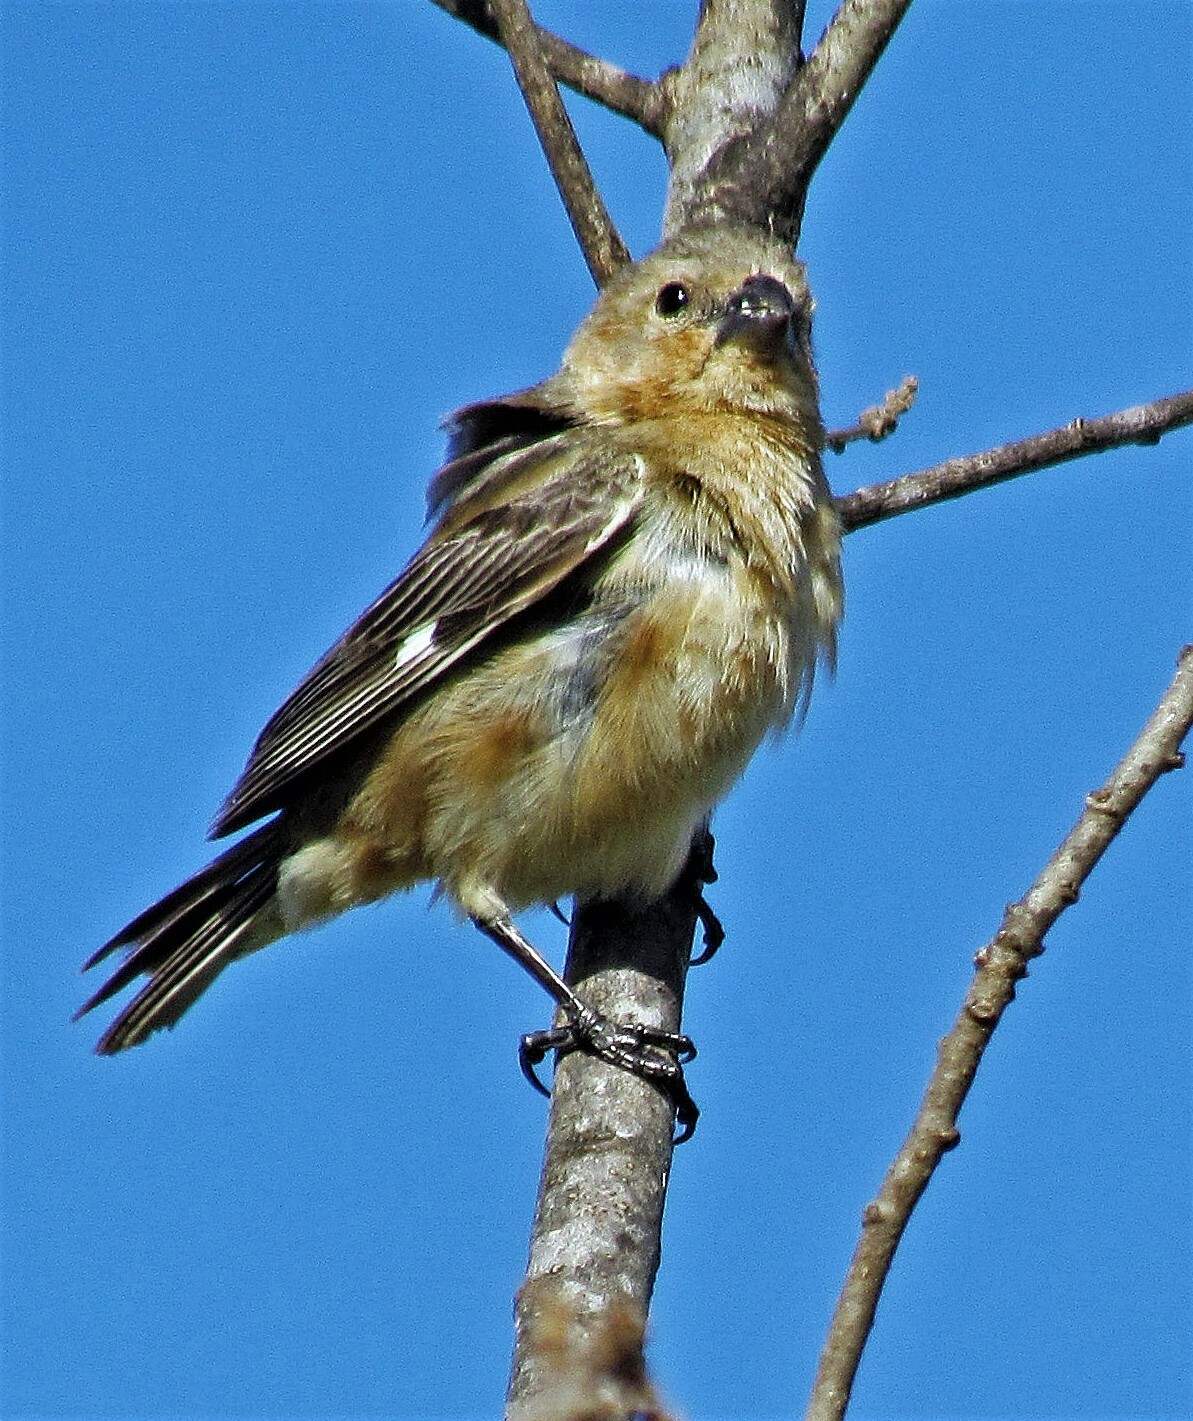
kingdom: Animalia
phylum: Chordata
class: Aves
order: Passeriformes
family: Thraupidae
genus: Sporophila
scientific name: Sporophila collaris
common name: Rusty-collared seedeater
